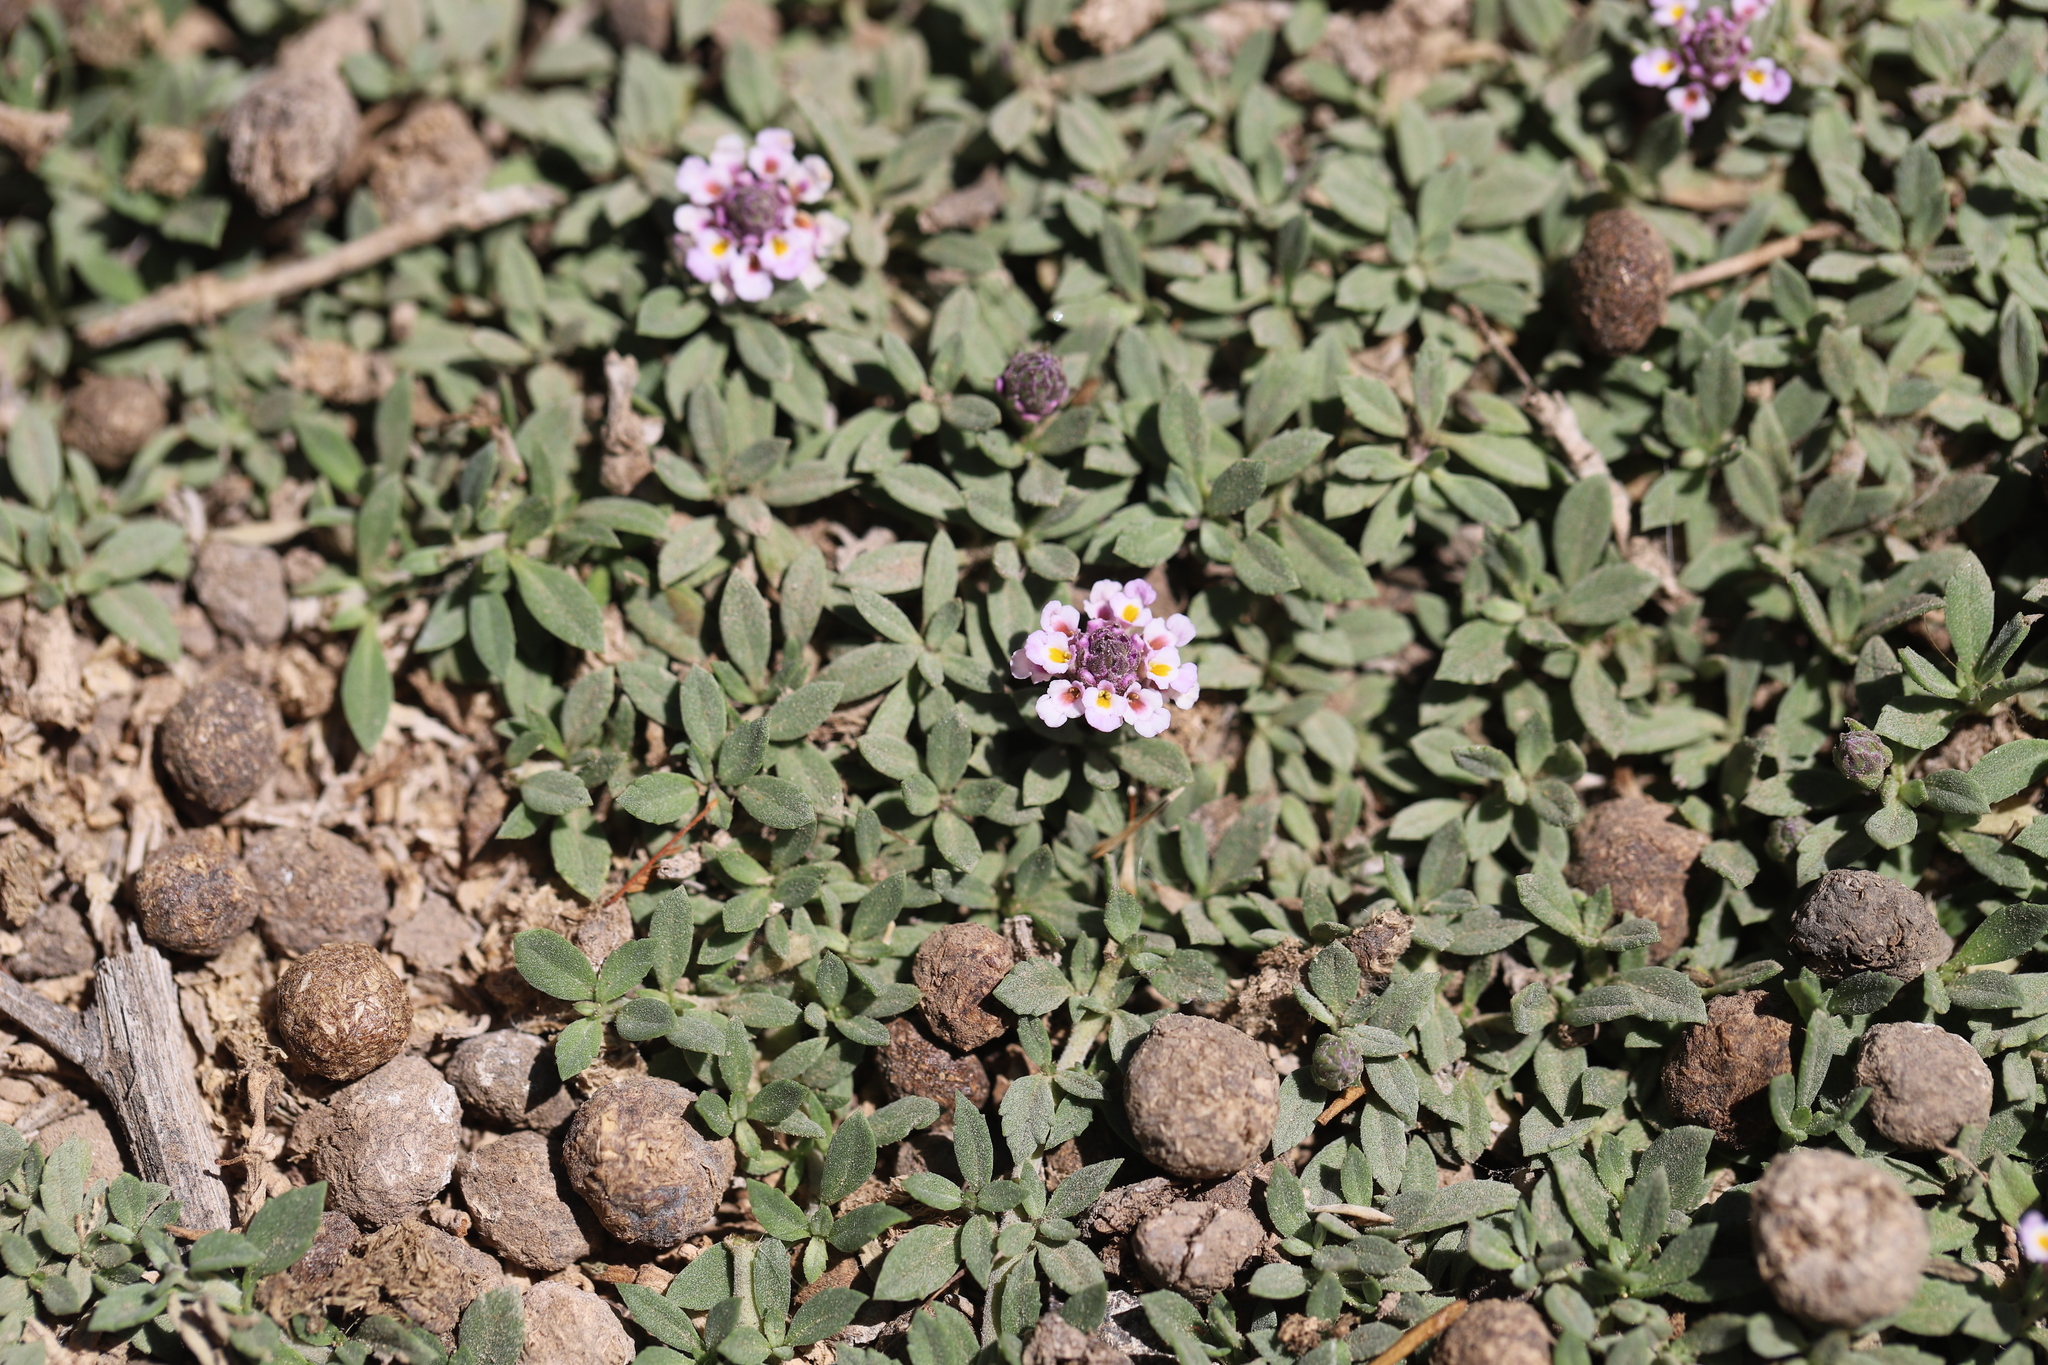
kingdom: Plantae
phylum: Tracheophyta
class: Magnoliopsida
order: Lamiales
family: Verbenaceae
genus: Phyla
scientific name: Phyla nodiflora
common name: Frogfruit
